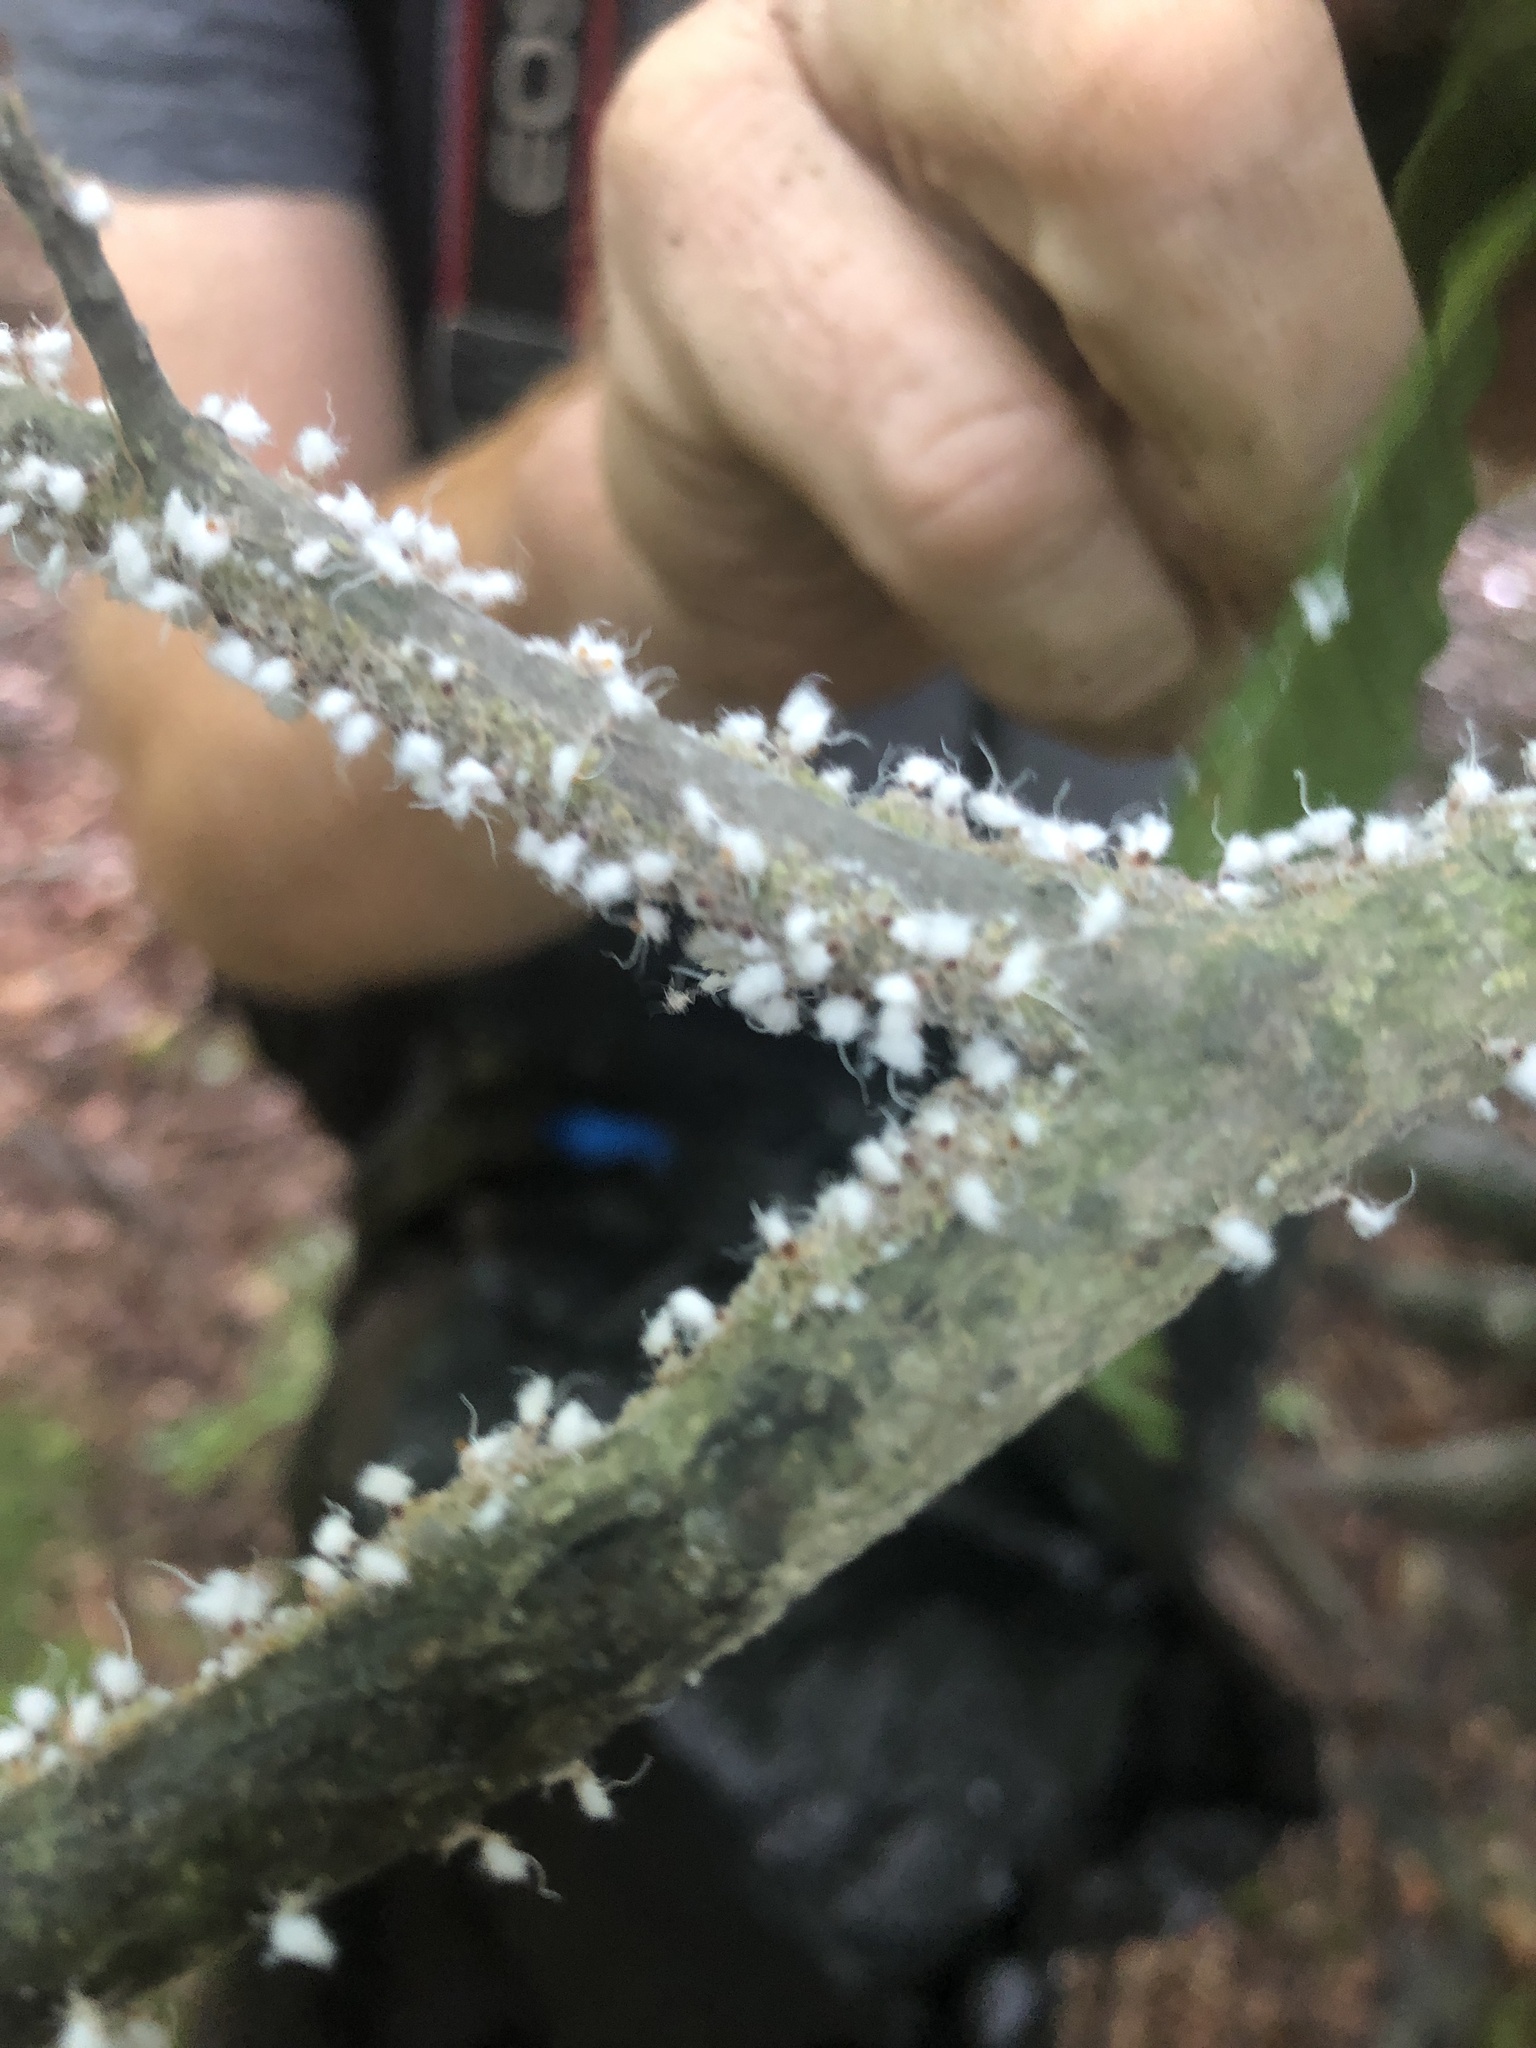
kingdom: Animalia
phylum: Arthropoda
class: Insecta
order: Hemiptera
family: Aphididae
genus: Grylloprociphilus
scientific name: Grylloprociphilus imbricator
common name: Beech blight aphid
